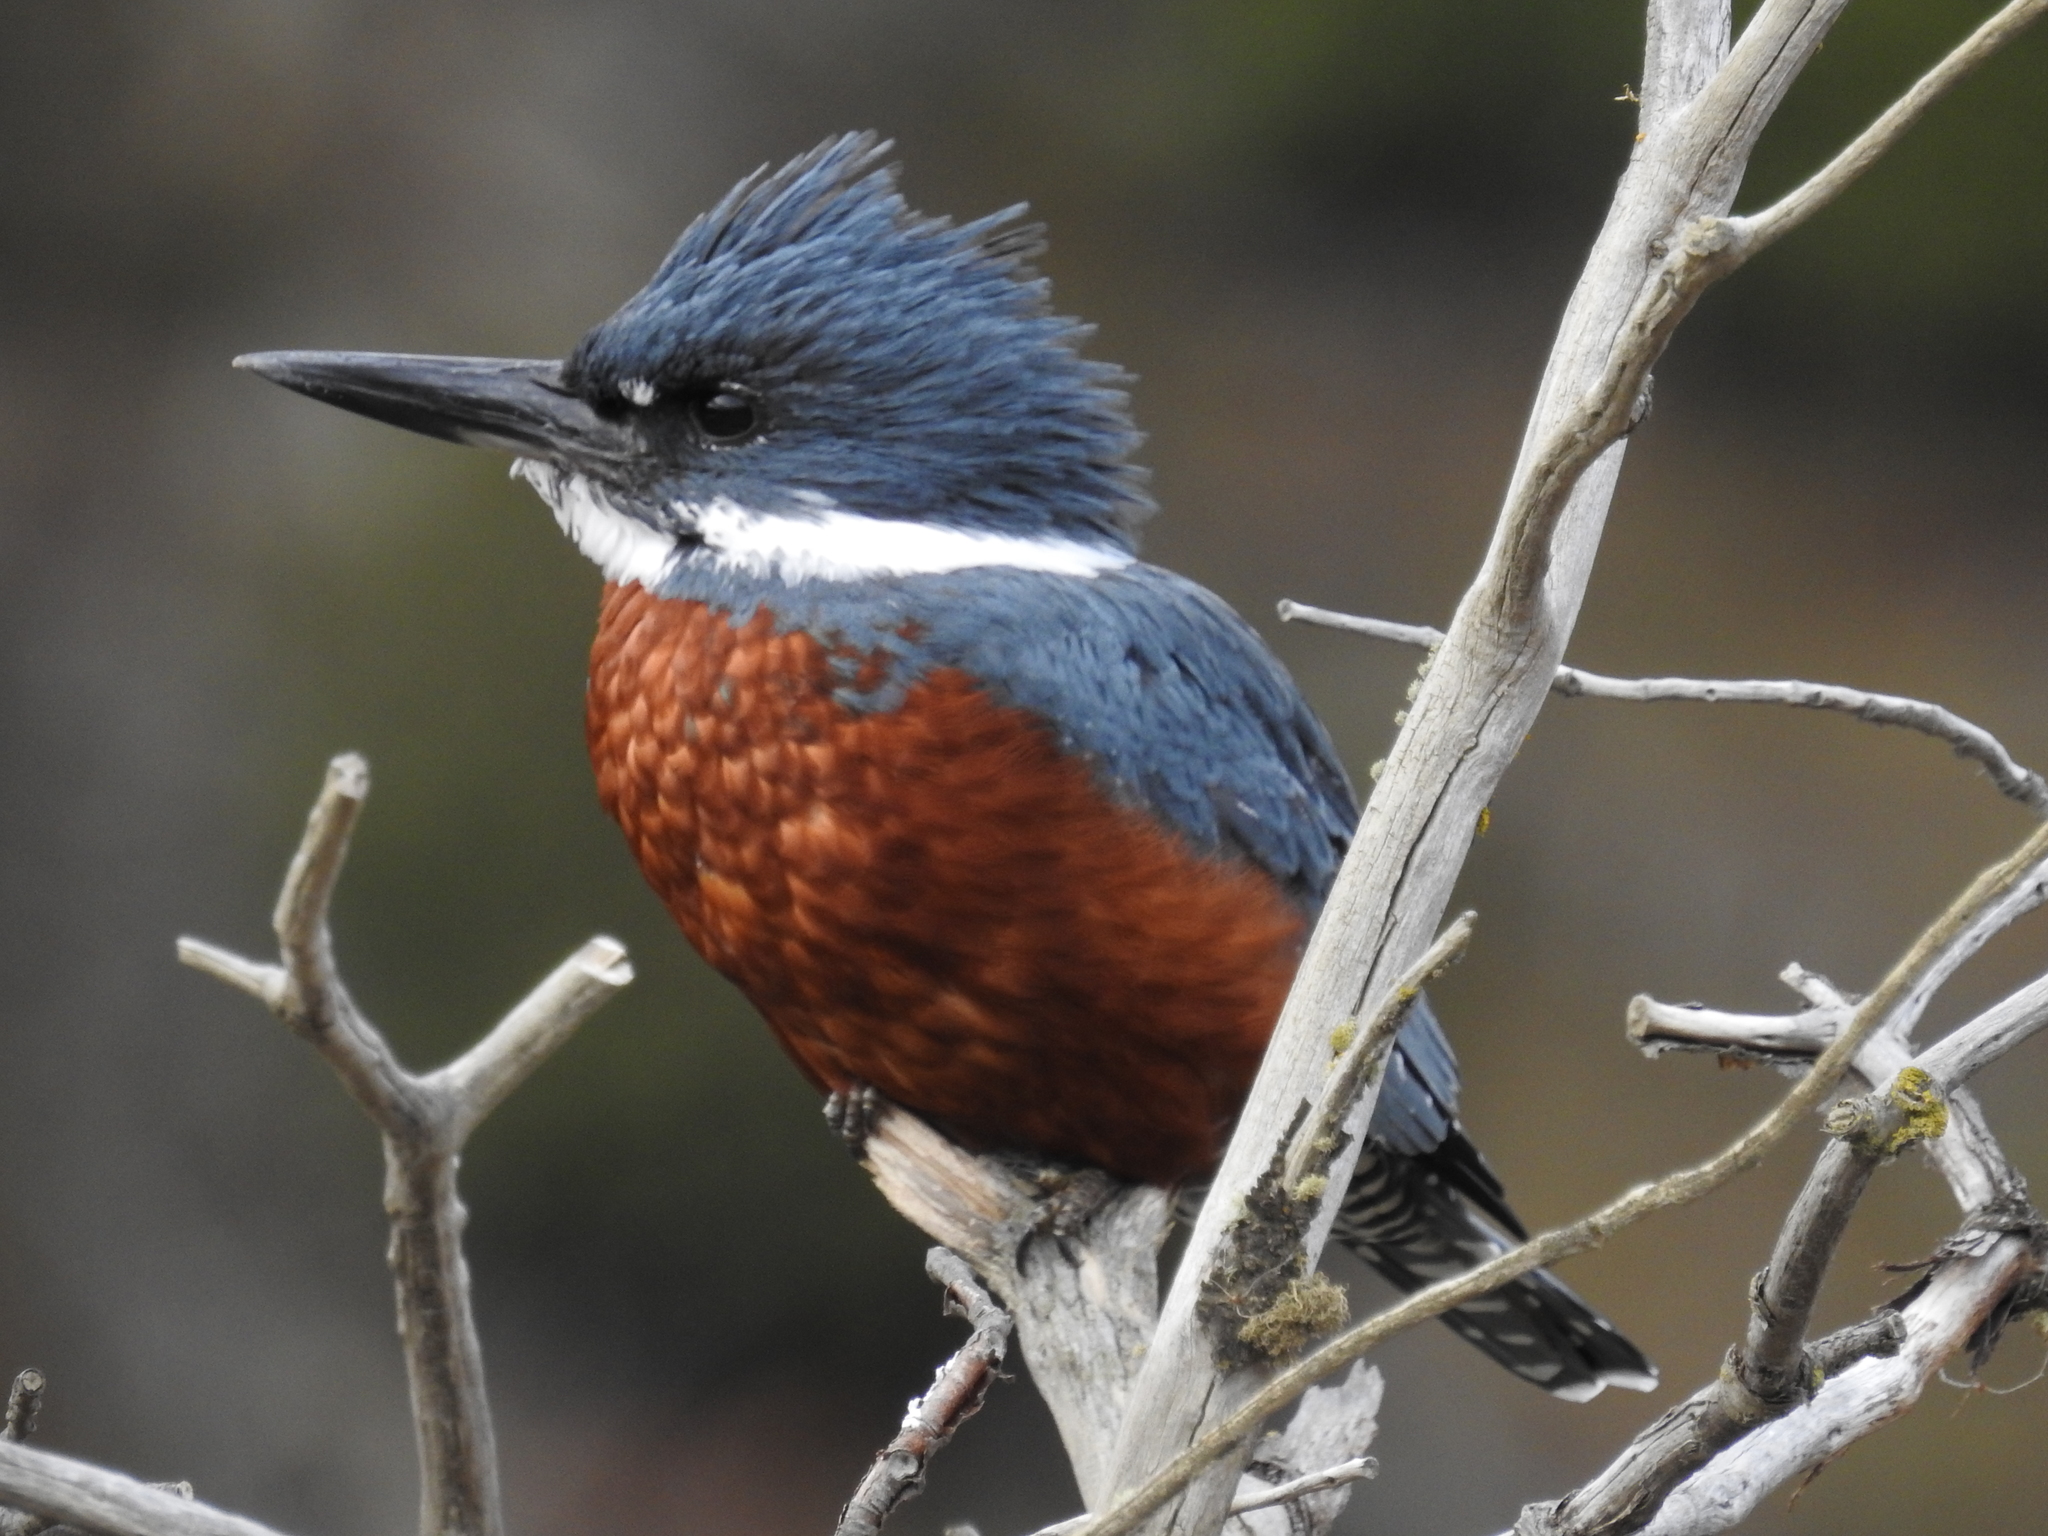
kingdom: Animalia
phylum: Chordata
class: Aves
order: Coraciiformes
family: Alcedinidae
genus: Megaceryle
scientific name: Megaceryle torquata
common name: Ringed kingfisher
